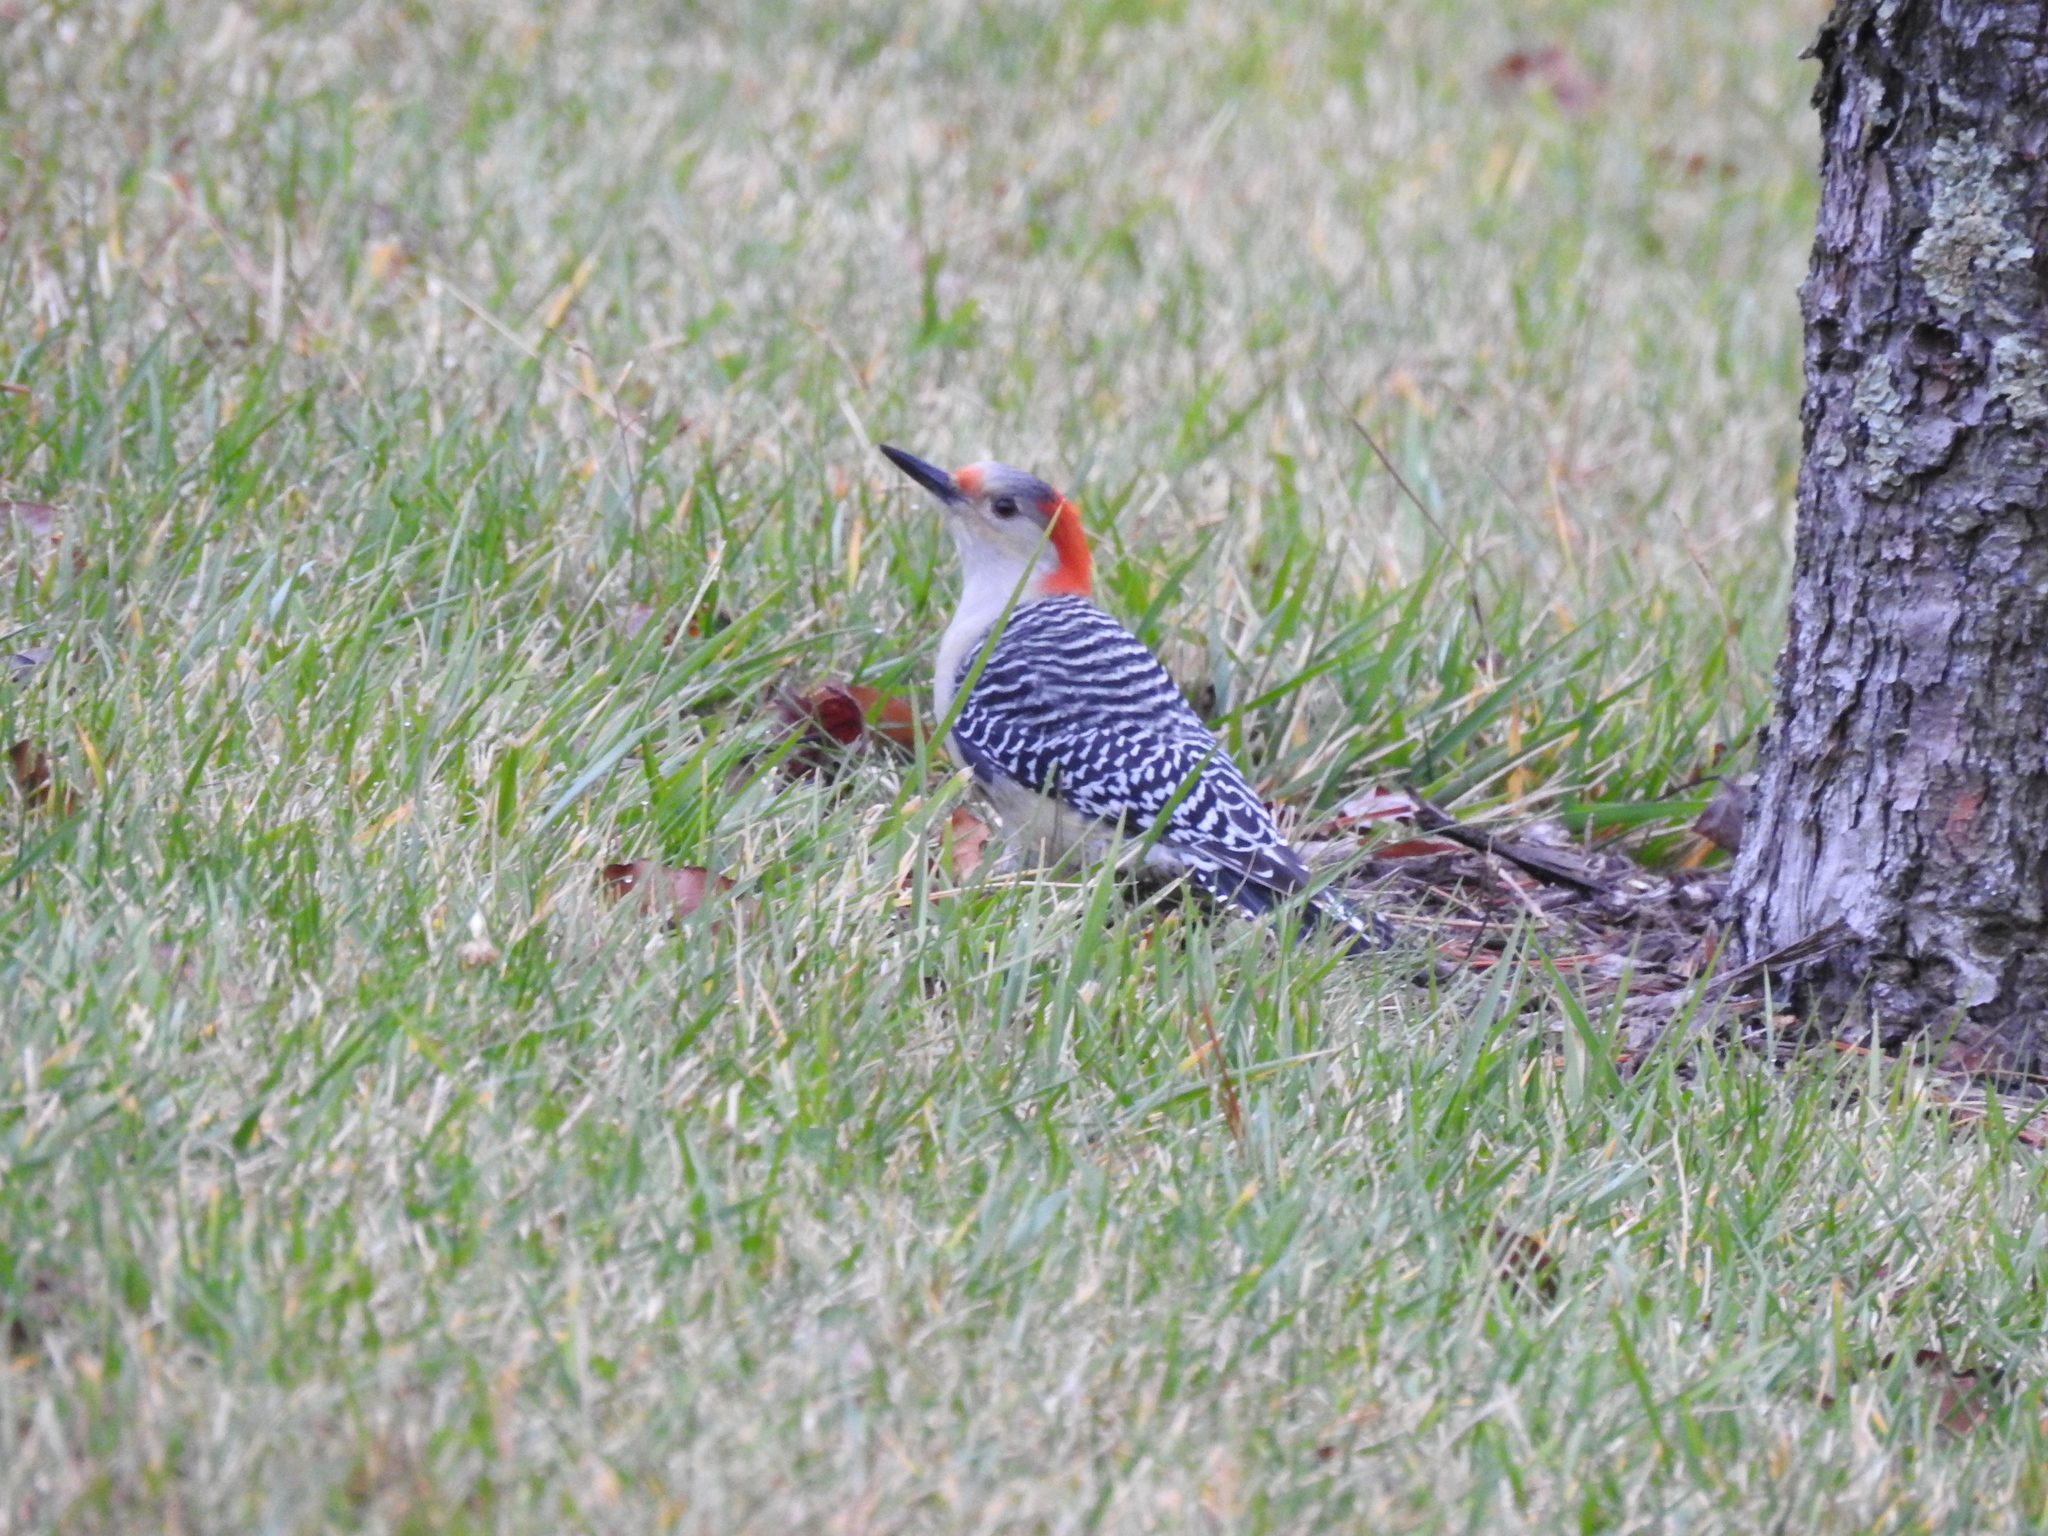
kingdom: Animalia
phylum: Chordata
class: Aves
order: Piciformes
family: Picidae
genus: Melanerpes
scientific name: Melanerpes carolinus
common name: Red-bellied woodpecker
